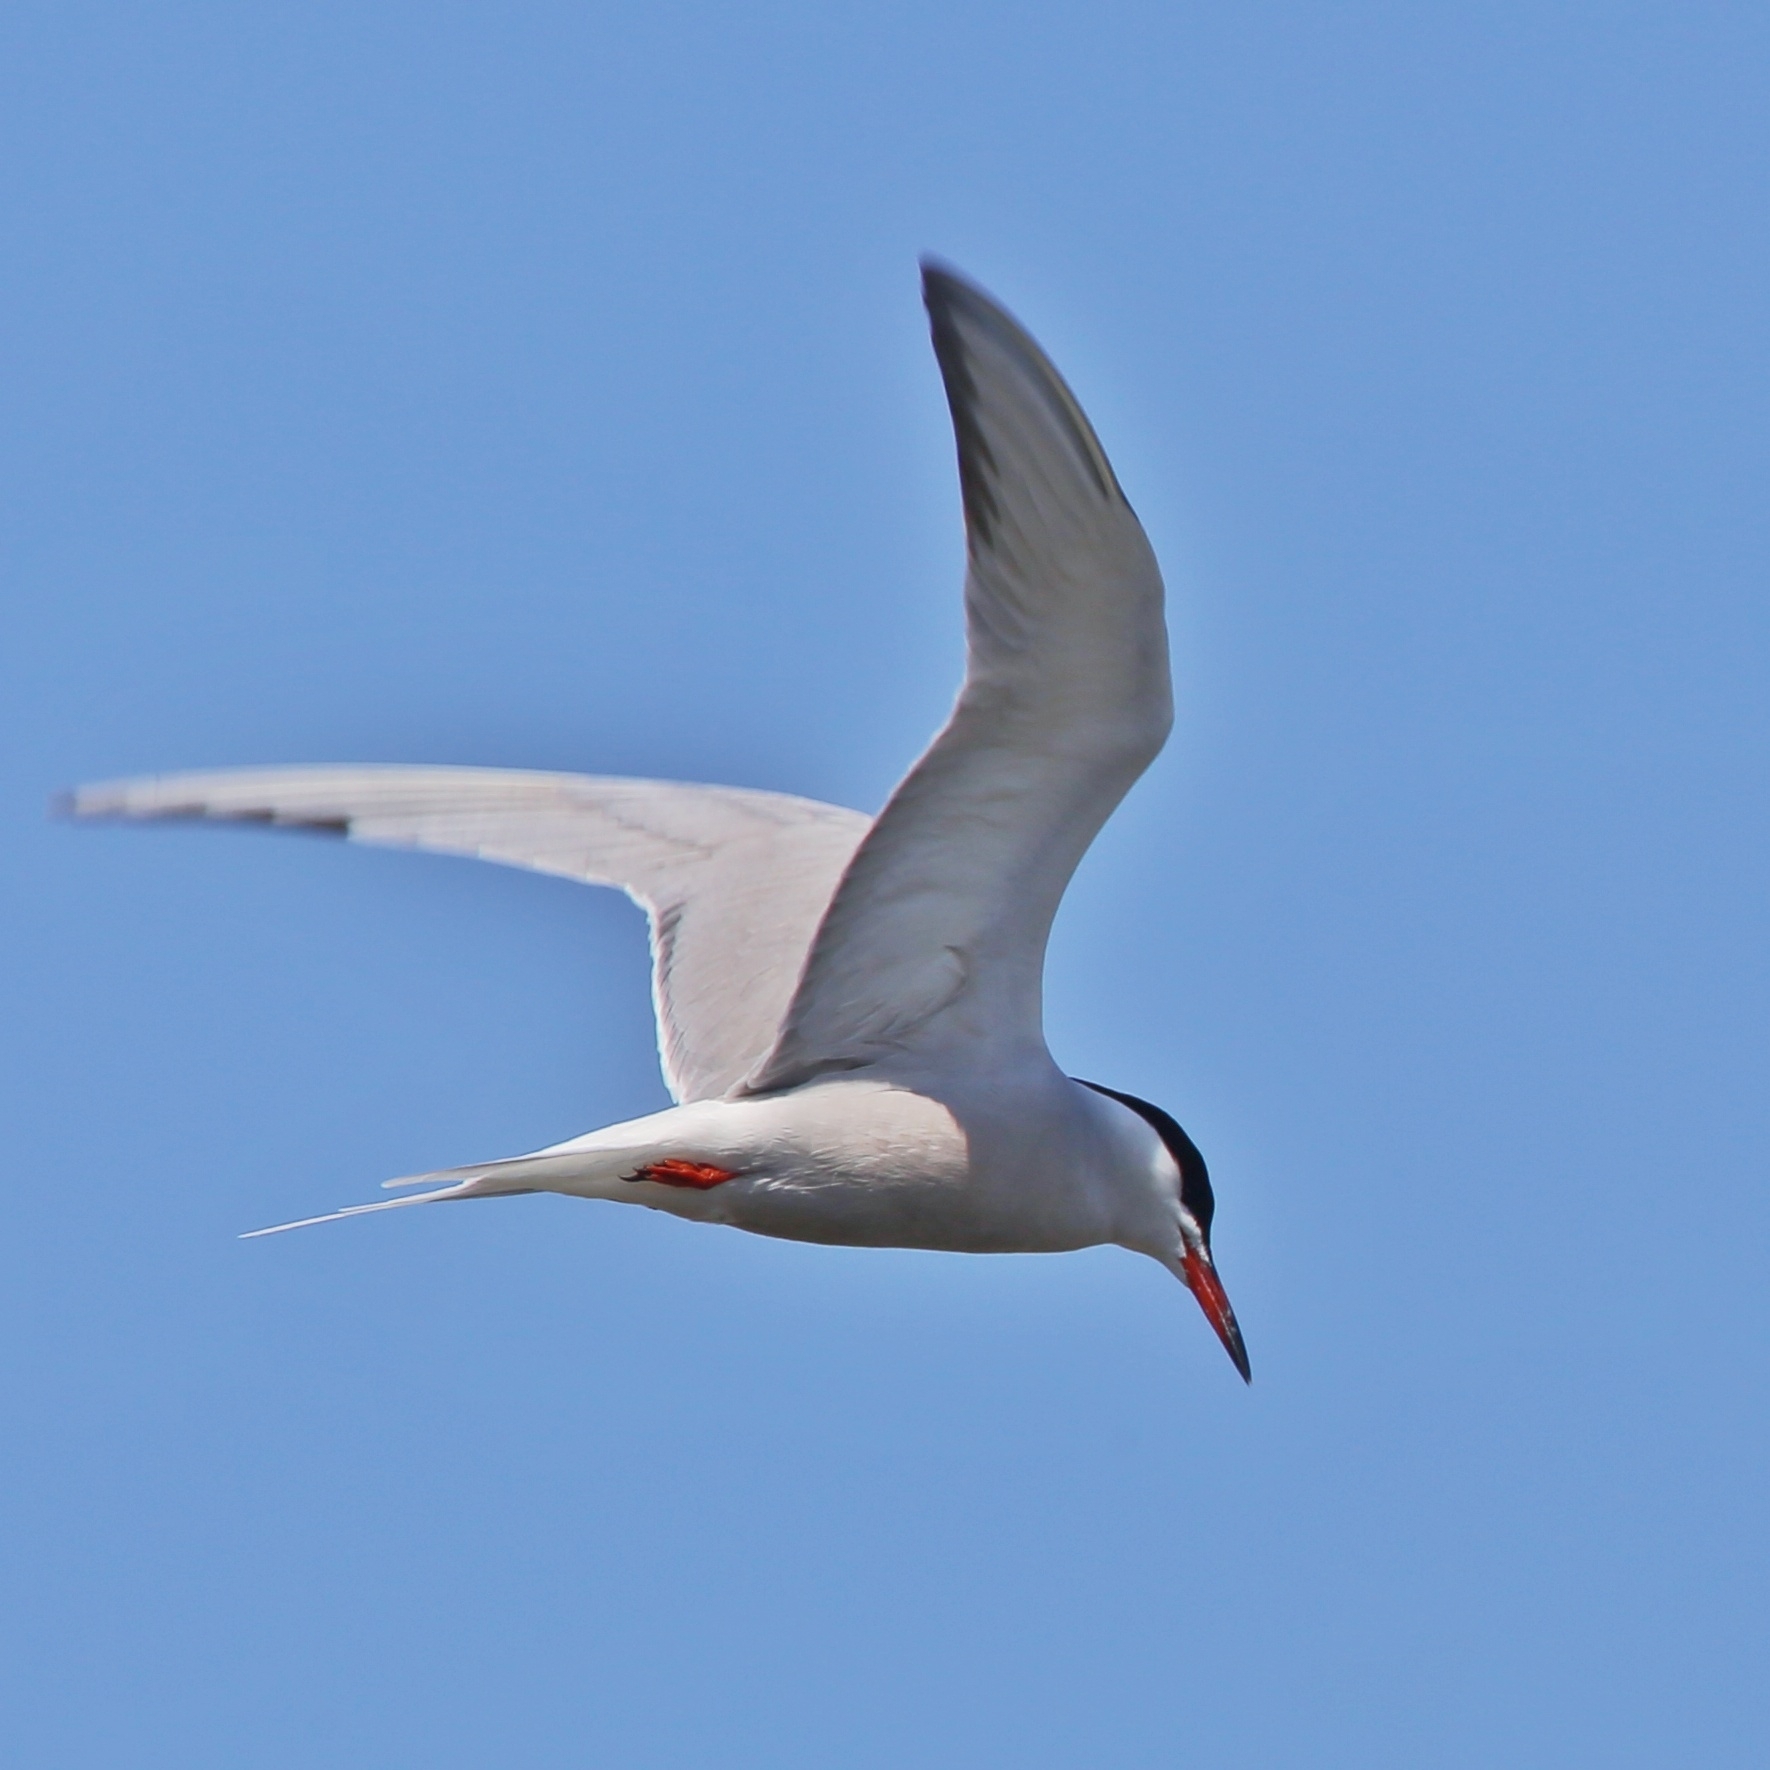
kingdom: Animalia
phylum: Chordata
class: Aves
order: Charadriiformes
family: Laridae
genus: Sterna
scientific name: Sterna hirundo
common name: Common tern
